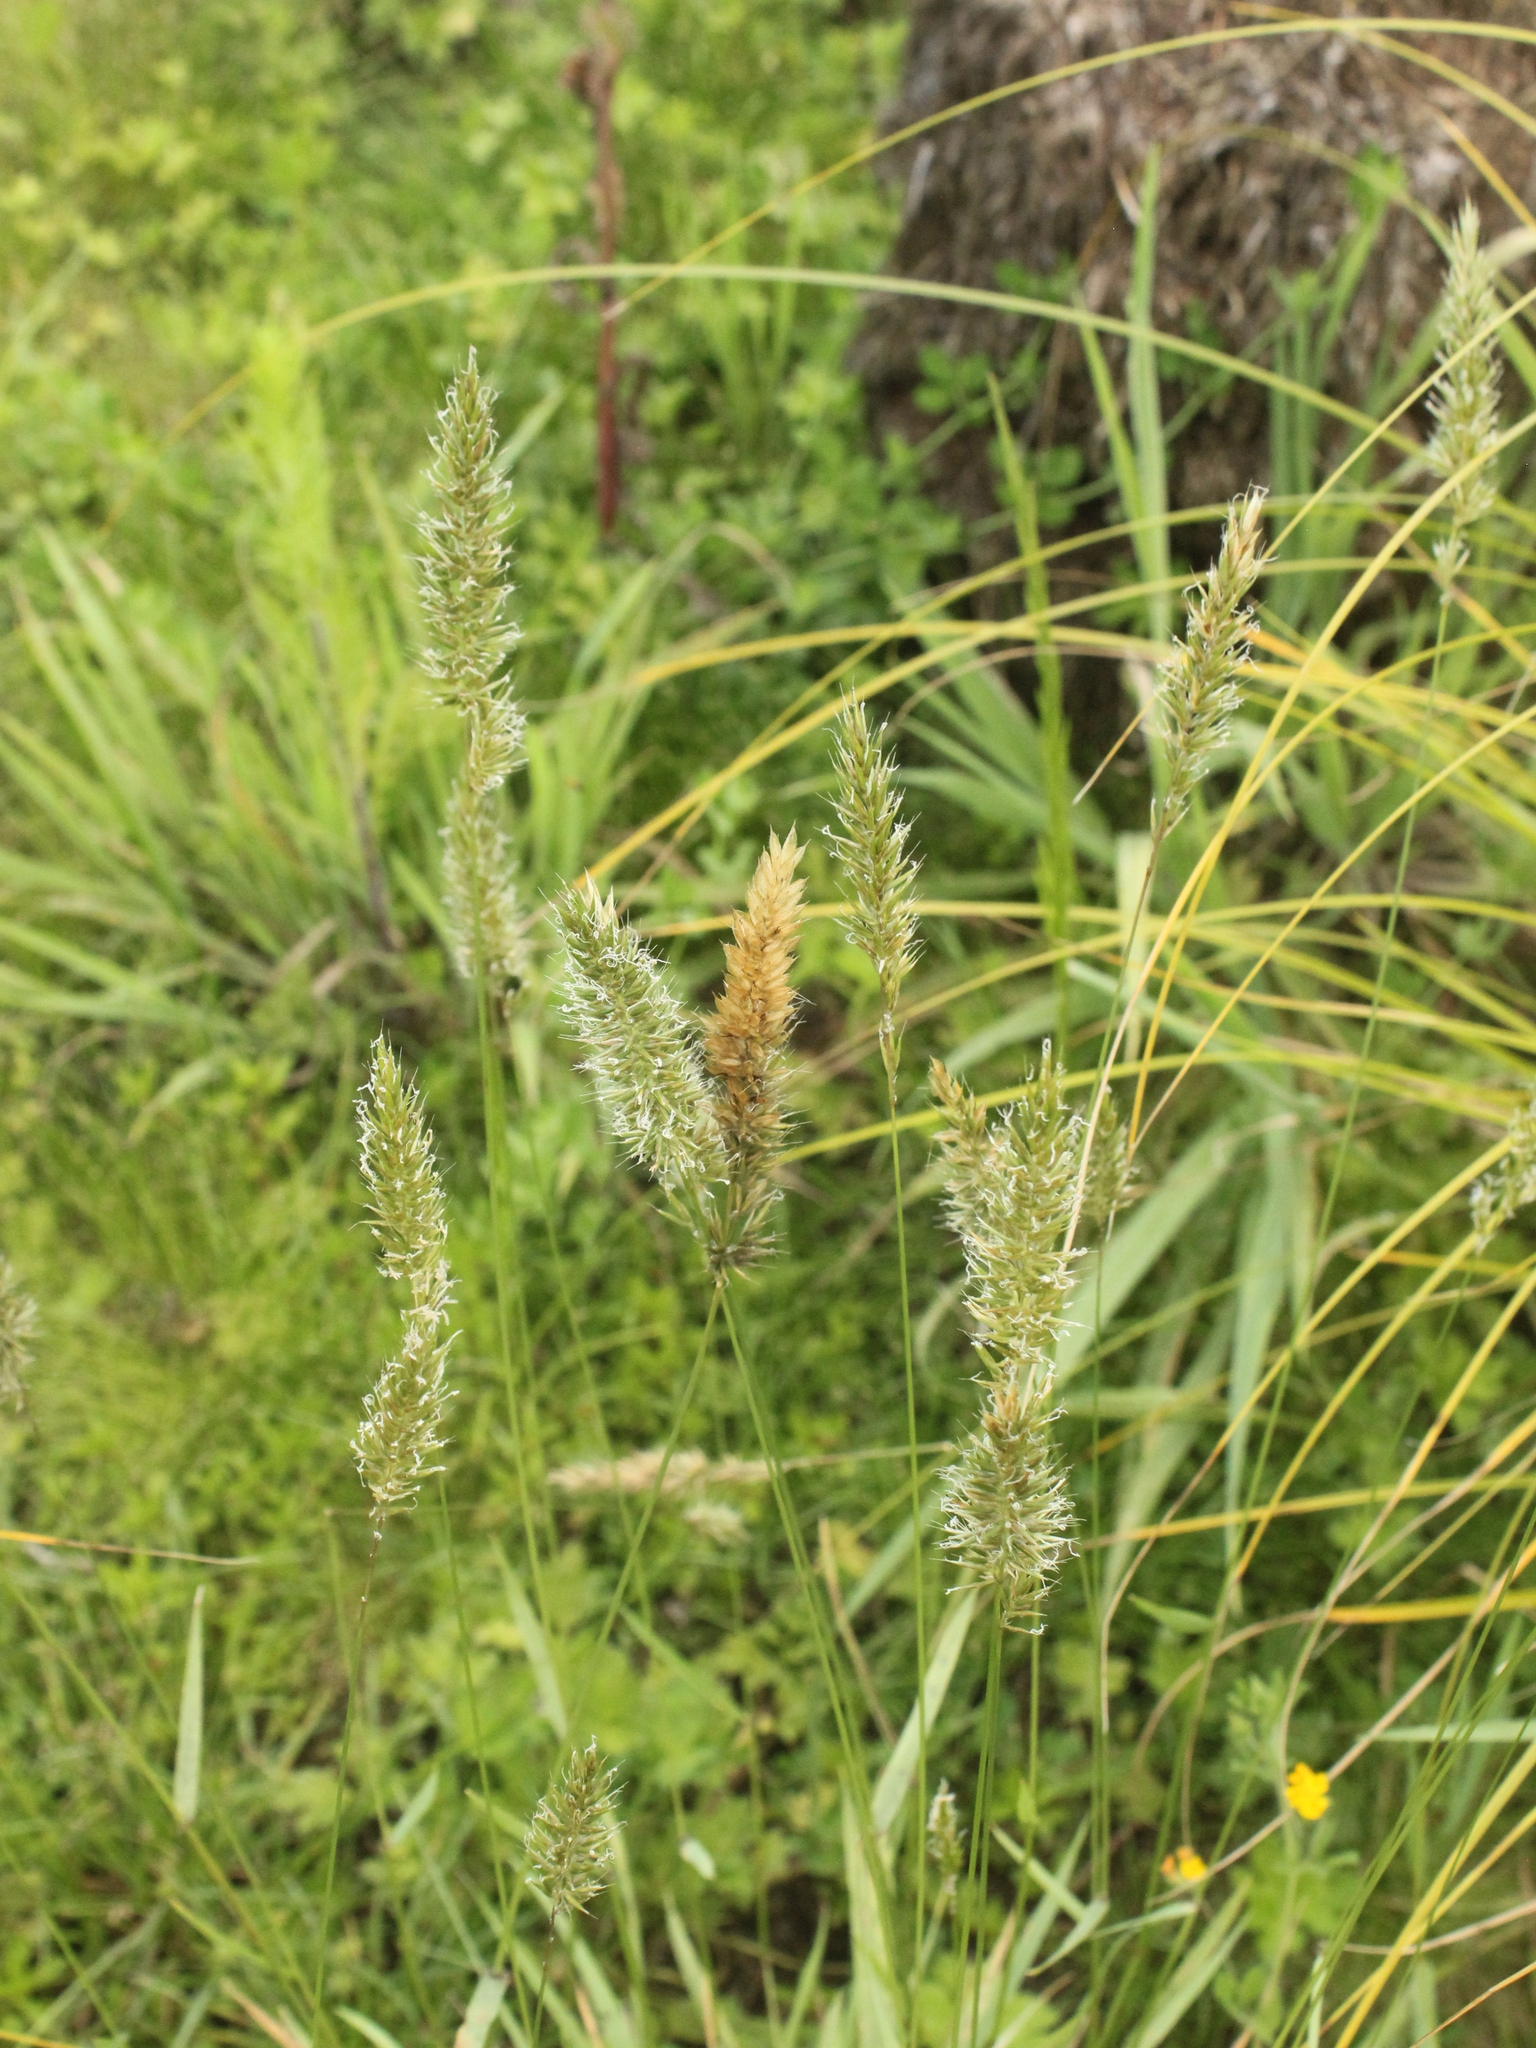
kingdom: Plantae
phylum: Tracheophyta
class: Liliopsida
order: Poales
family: Poaceae
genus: Anthoxanthum
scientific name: Anthoxanthum odoratum
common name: Sweet vernalgrass
